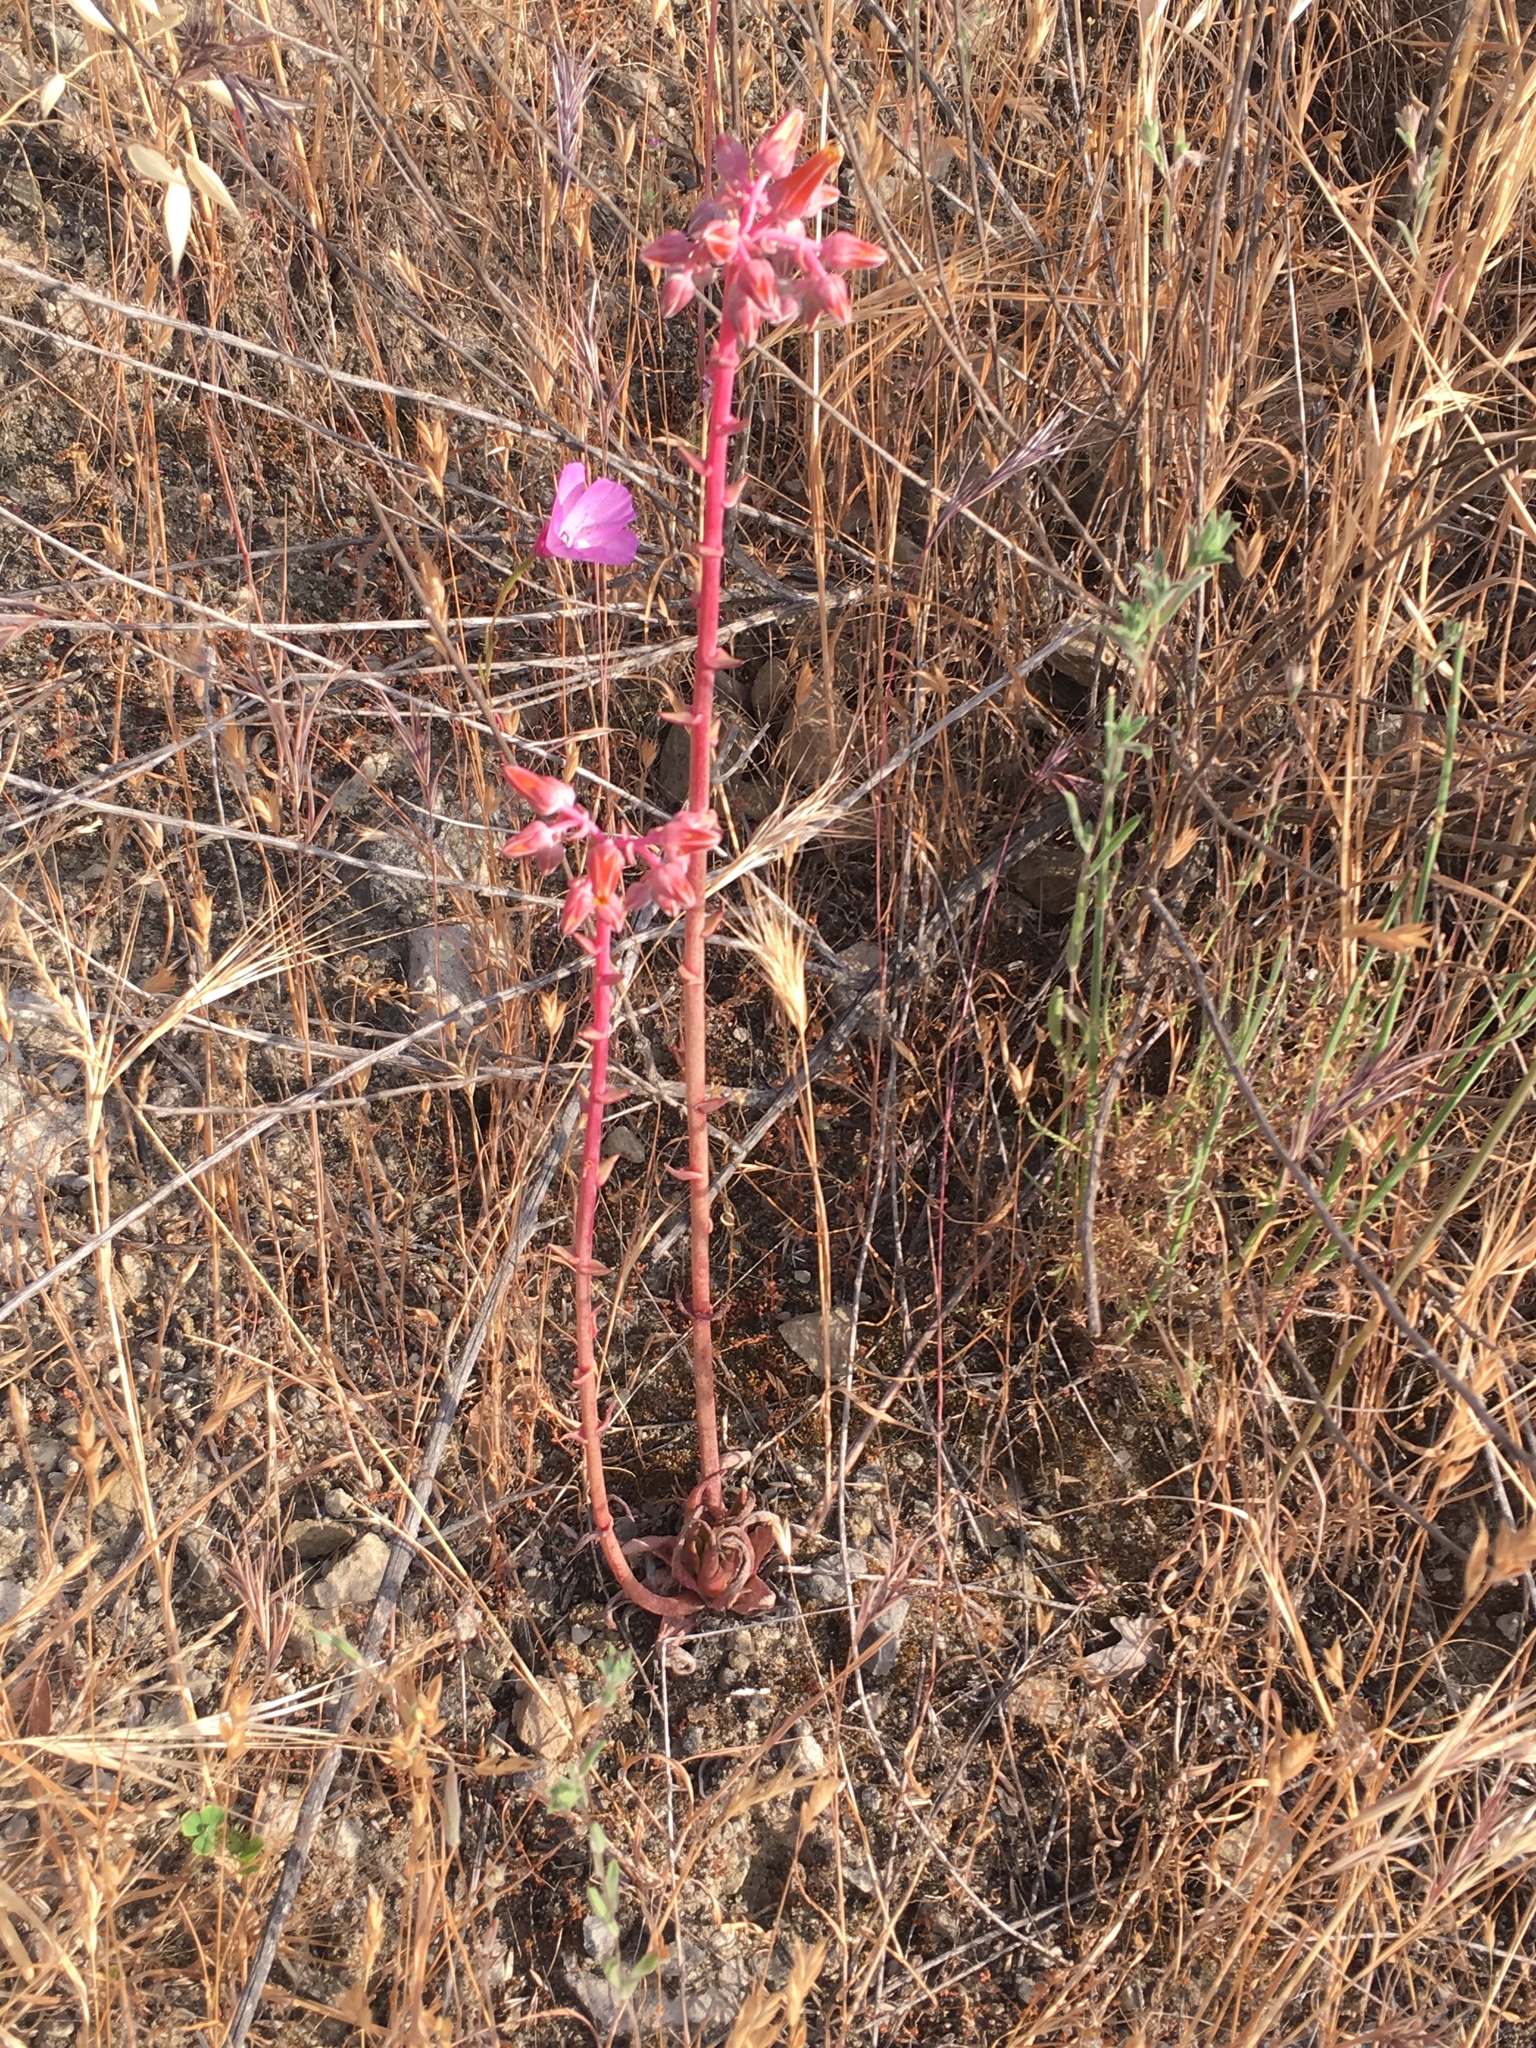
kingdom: Plantae
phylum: Tracheophyta
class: Magnoliopsida
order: Saxifragales
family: Crassulaceae
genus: Dudleya
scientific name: Dudleya lanceolata
